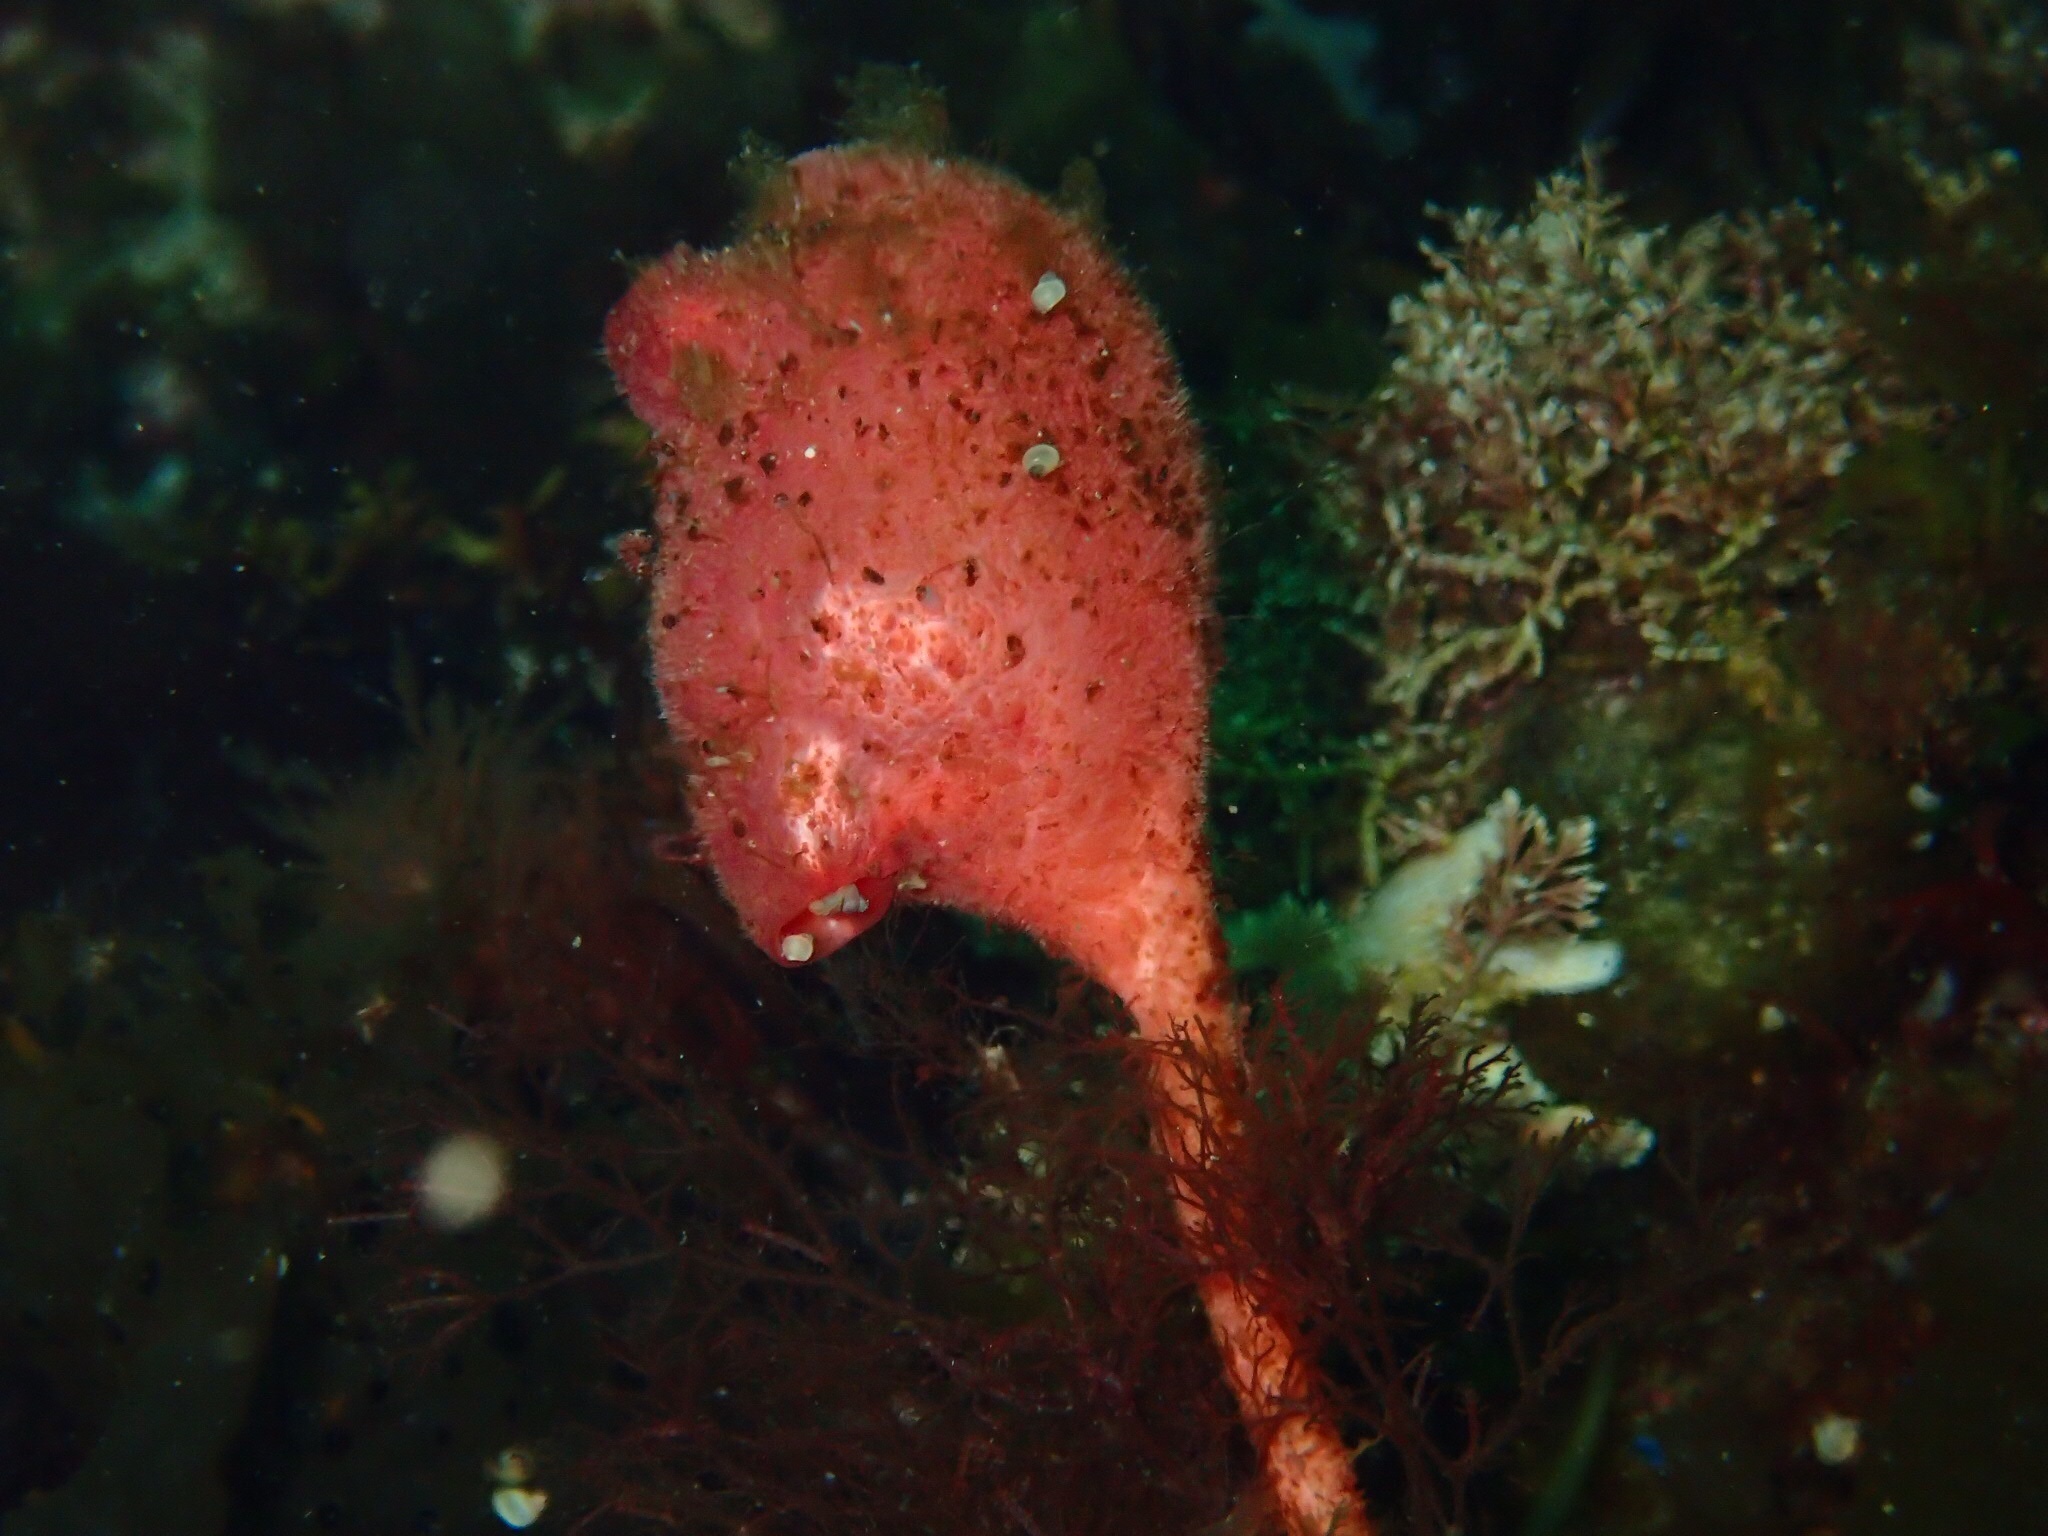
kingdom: Animalia
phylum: Chordata
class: Ascidiacea
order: Stolidobranchia
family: Pyuridae
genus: Boltenia
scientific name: Boltenia ovifera
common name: Stalked sea squirt
